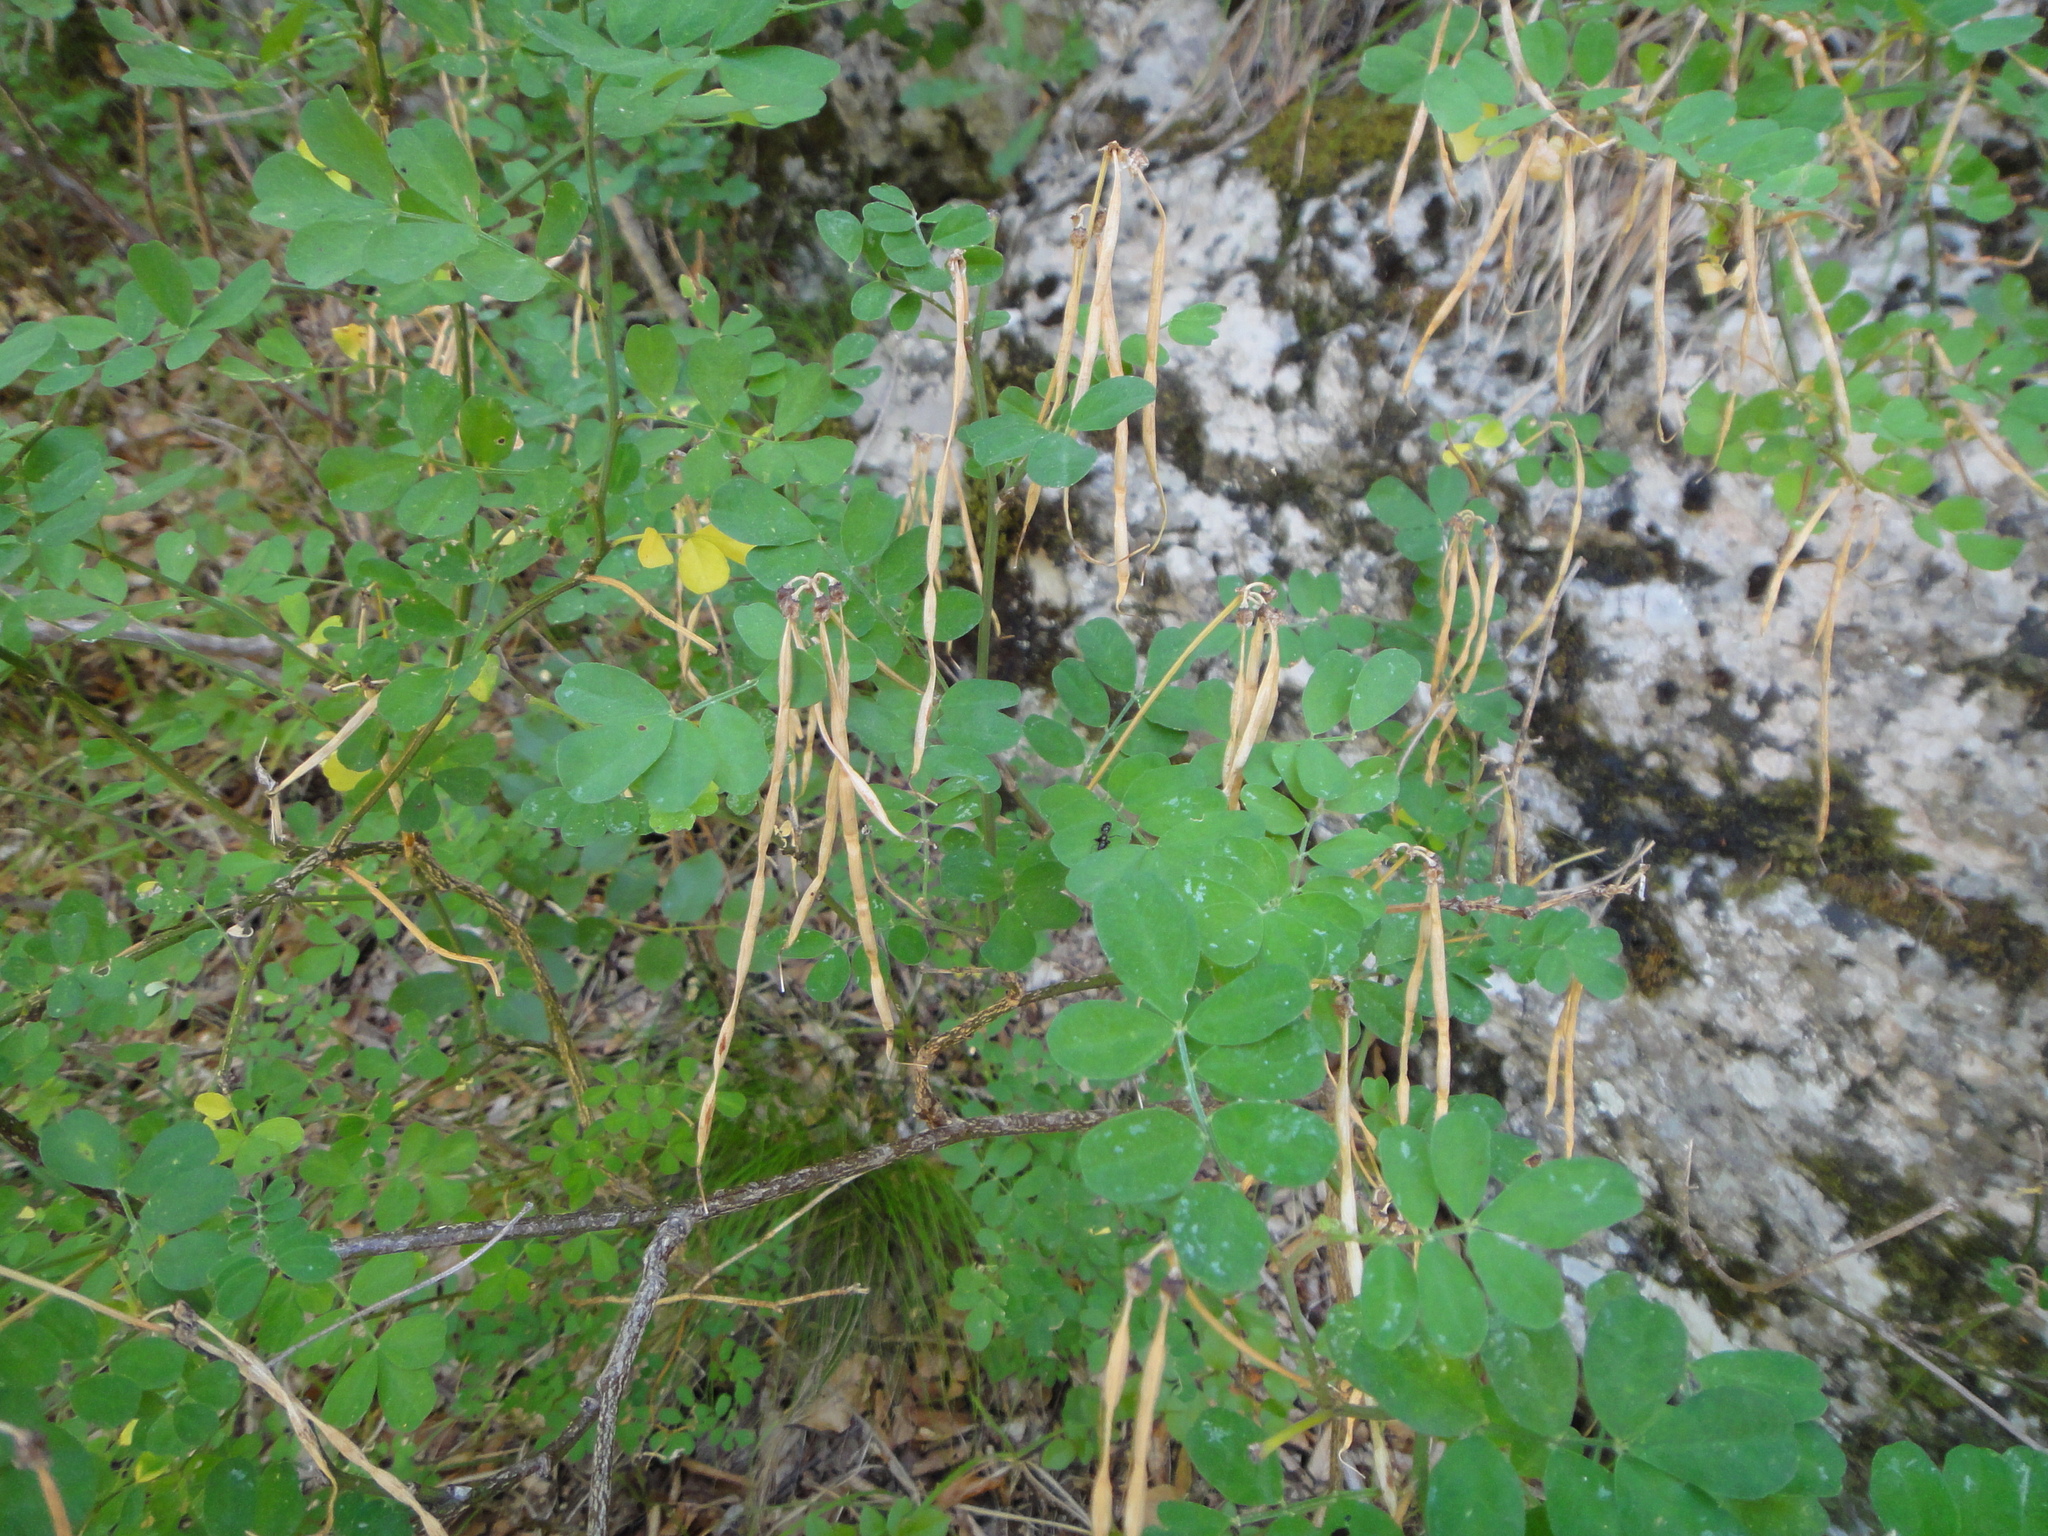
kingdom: Plantae
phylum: Tracheophyta
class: Magnoliopsida
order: Fabales
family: Fabaceae
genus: Hippocrepis
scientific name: Hippocrepis emerus
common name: Scorpion senna
